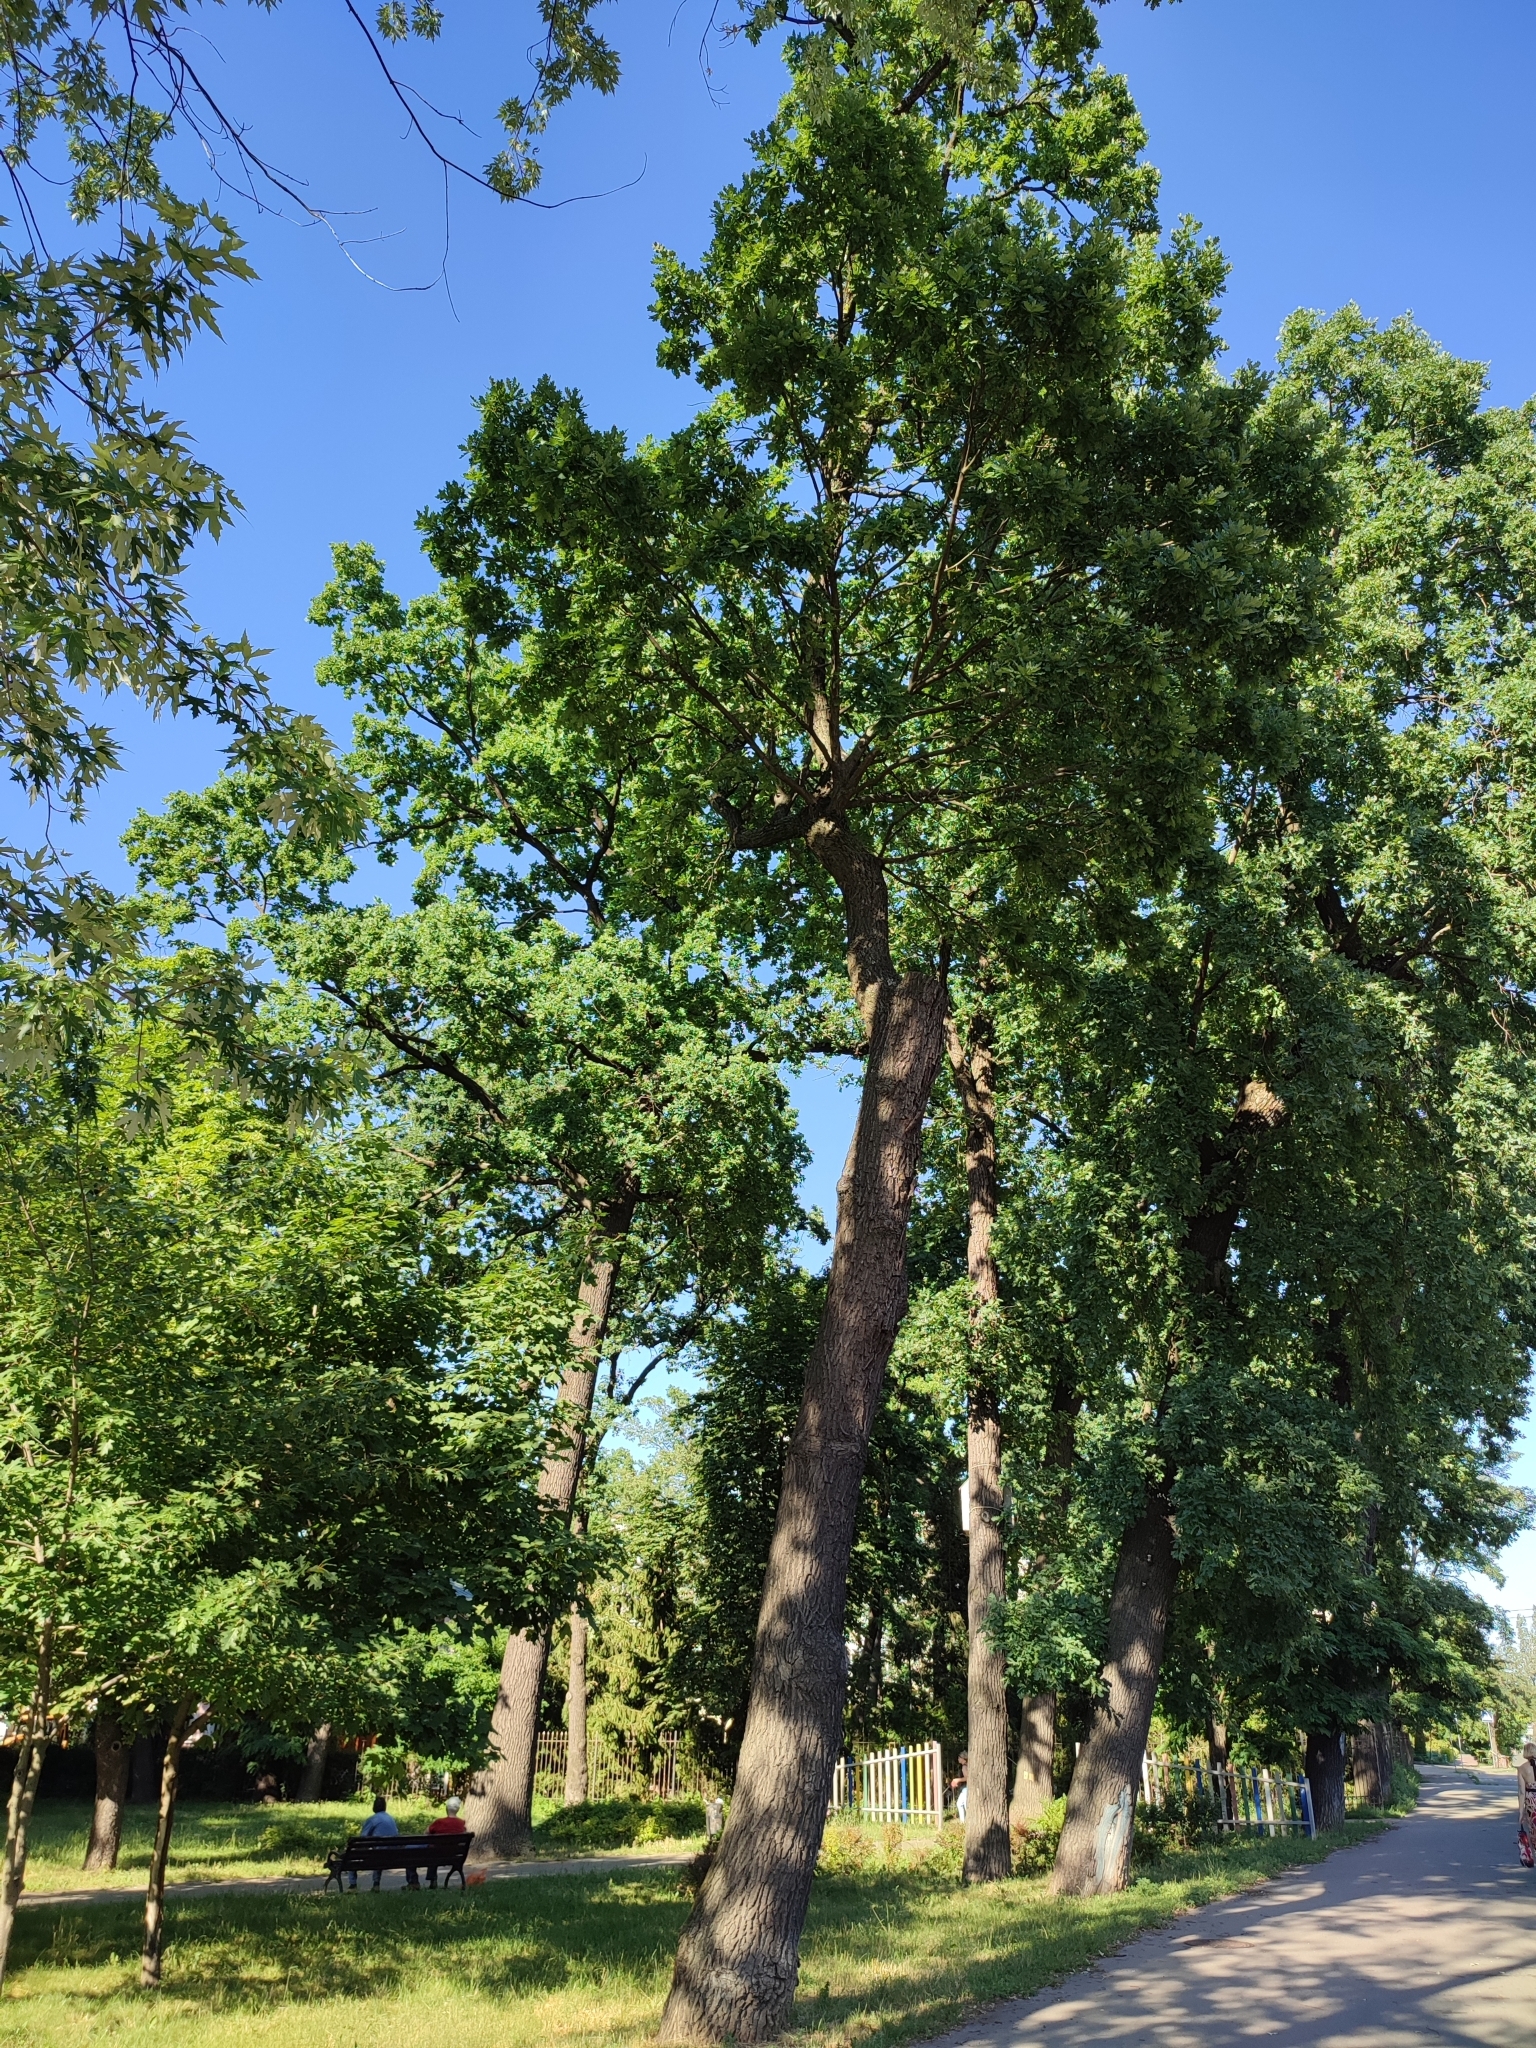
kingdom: Plantae
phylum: Tracheophyta
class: Magnoliopsida
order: Fagales
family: Fagaceae
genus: Quercus
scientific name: Quercus robur
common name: Pedunculate oak
